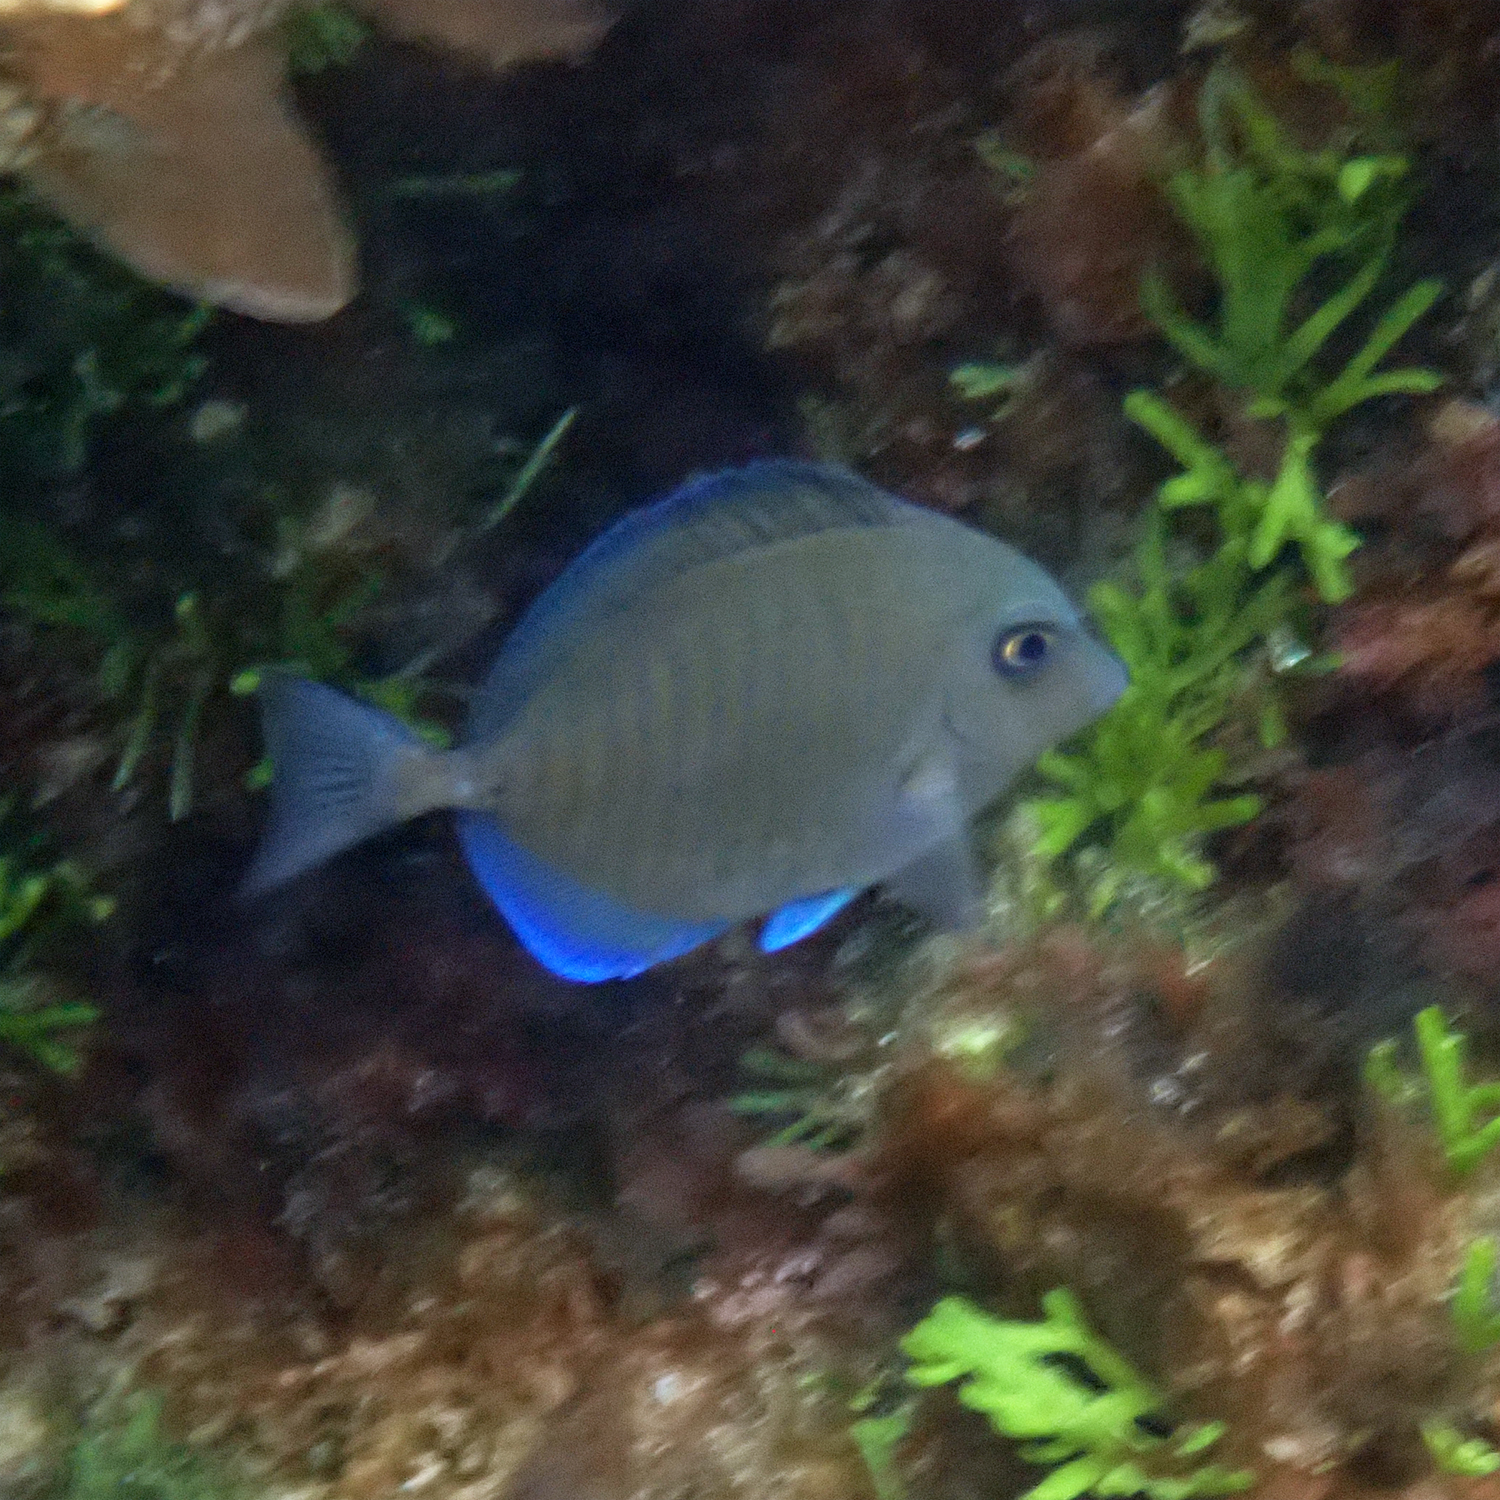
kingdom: Animalia
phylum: Chordata
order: Perciformes
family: Acanthuridae
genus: Prionurus
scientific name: Prionurus maculatus
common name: Yellowspotted sawtail
